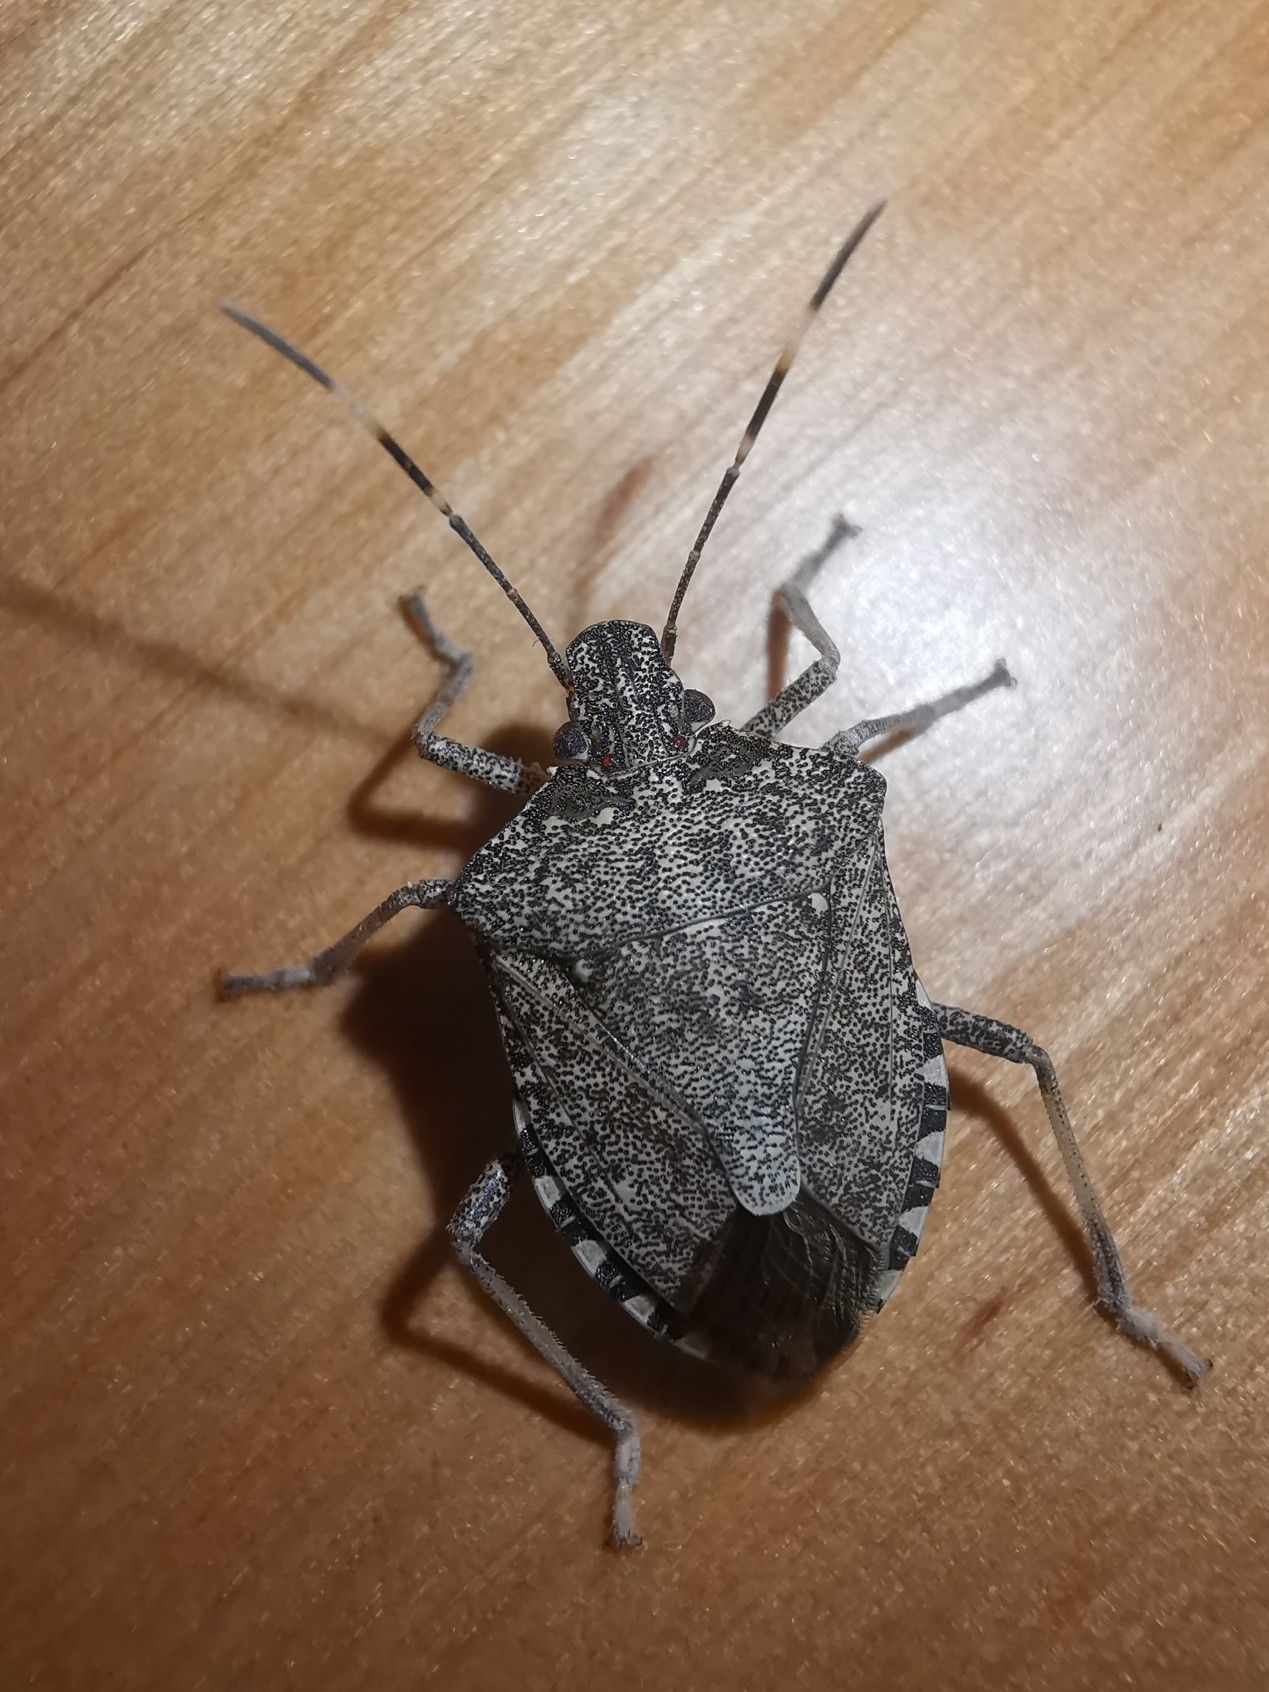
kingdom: Animalia
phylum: Arthropoda
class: Insecta
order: Hemiptera
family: Pentatomidae
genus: Halyomorpha
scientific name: Halyomorpha halys
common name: Brown marmorated stink bug
